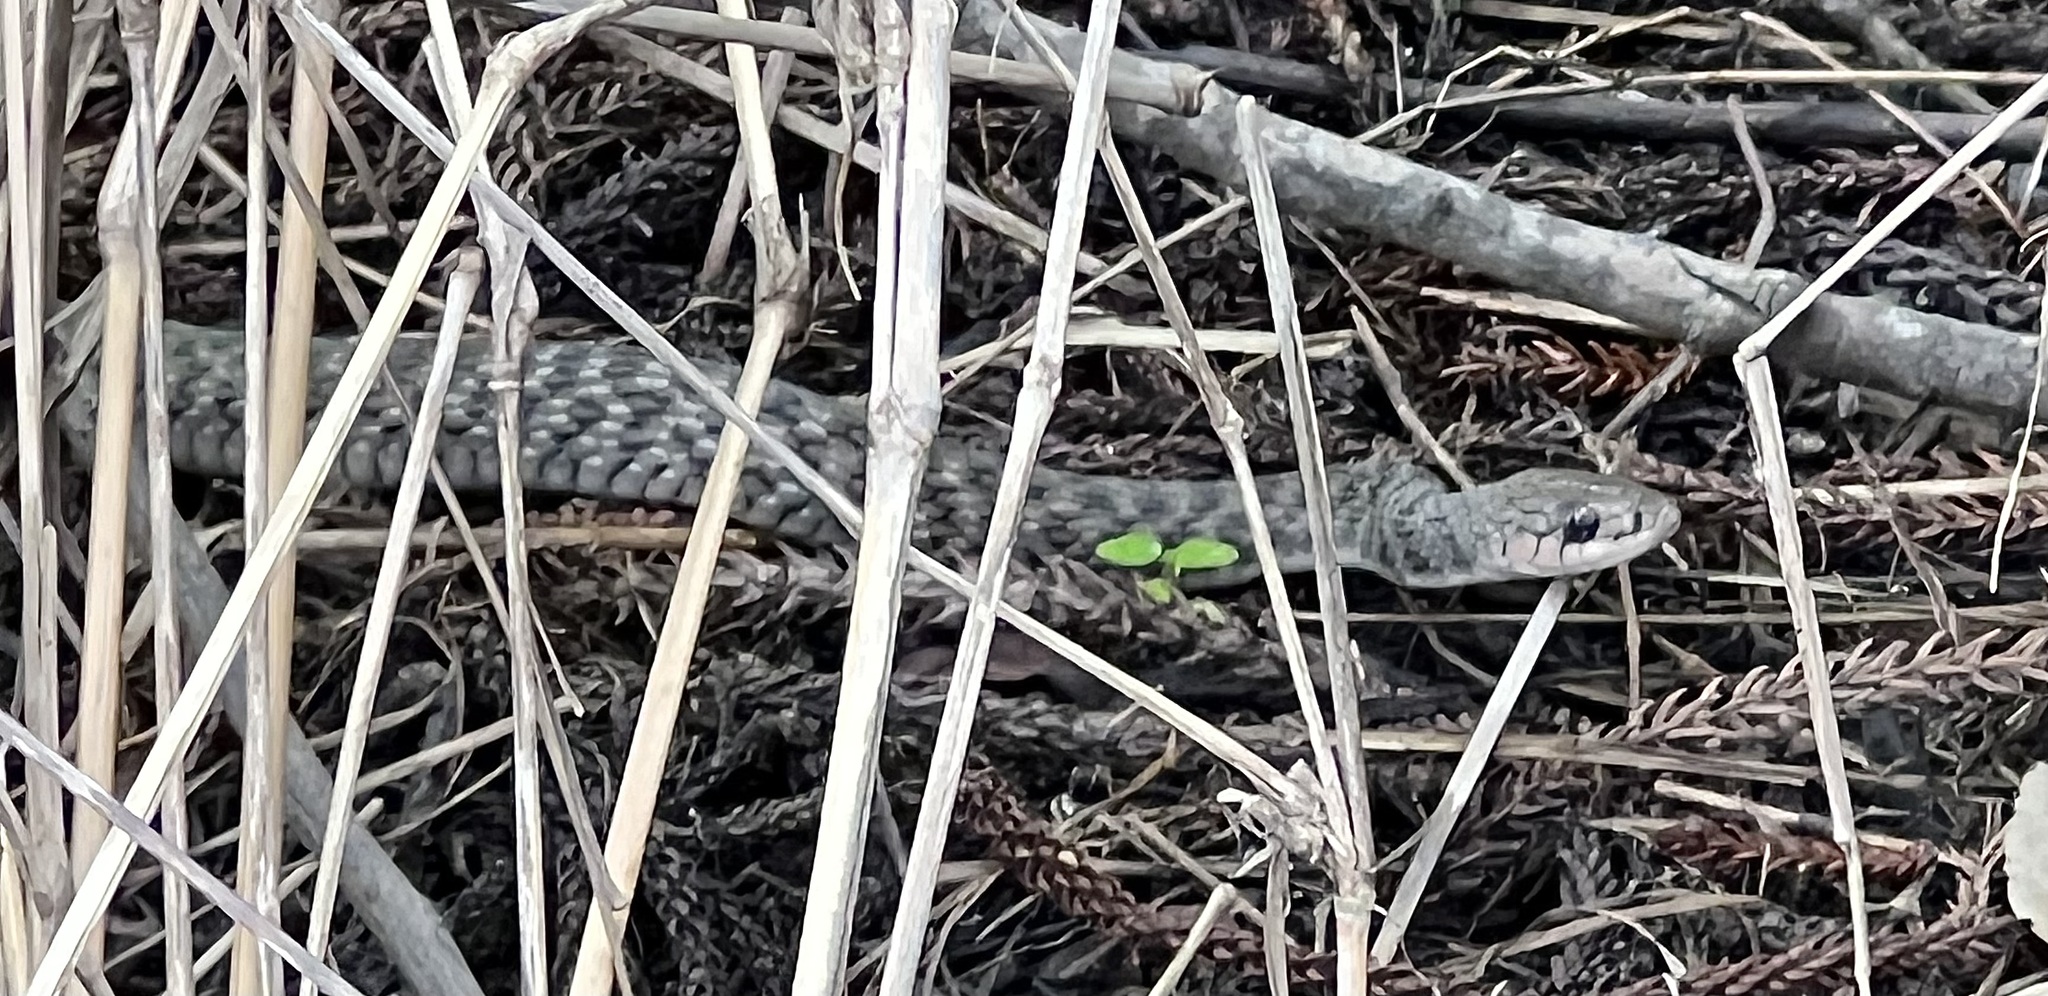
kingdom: Animalia
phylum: Chordata
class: Squamata
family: Colubridae
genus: Tropidonophis
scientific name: Tropidonophis mairii
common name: Common keelback
